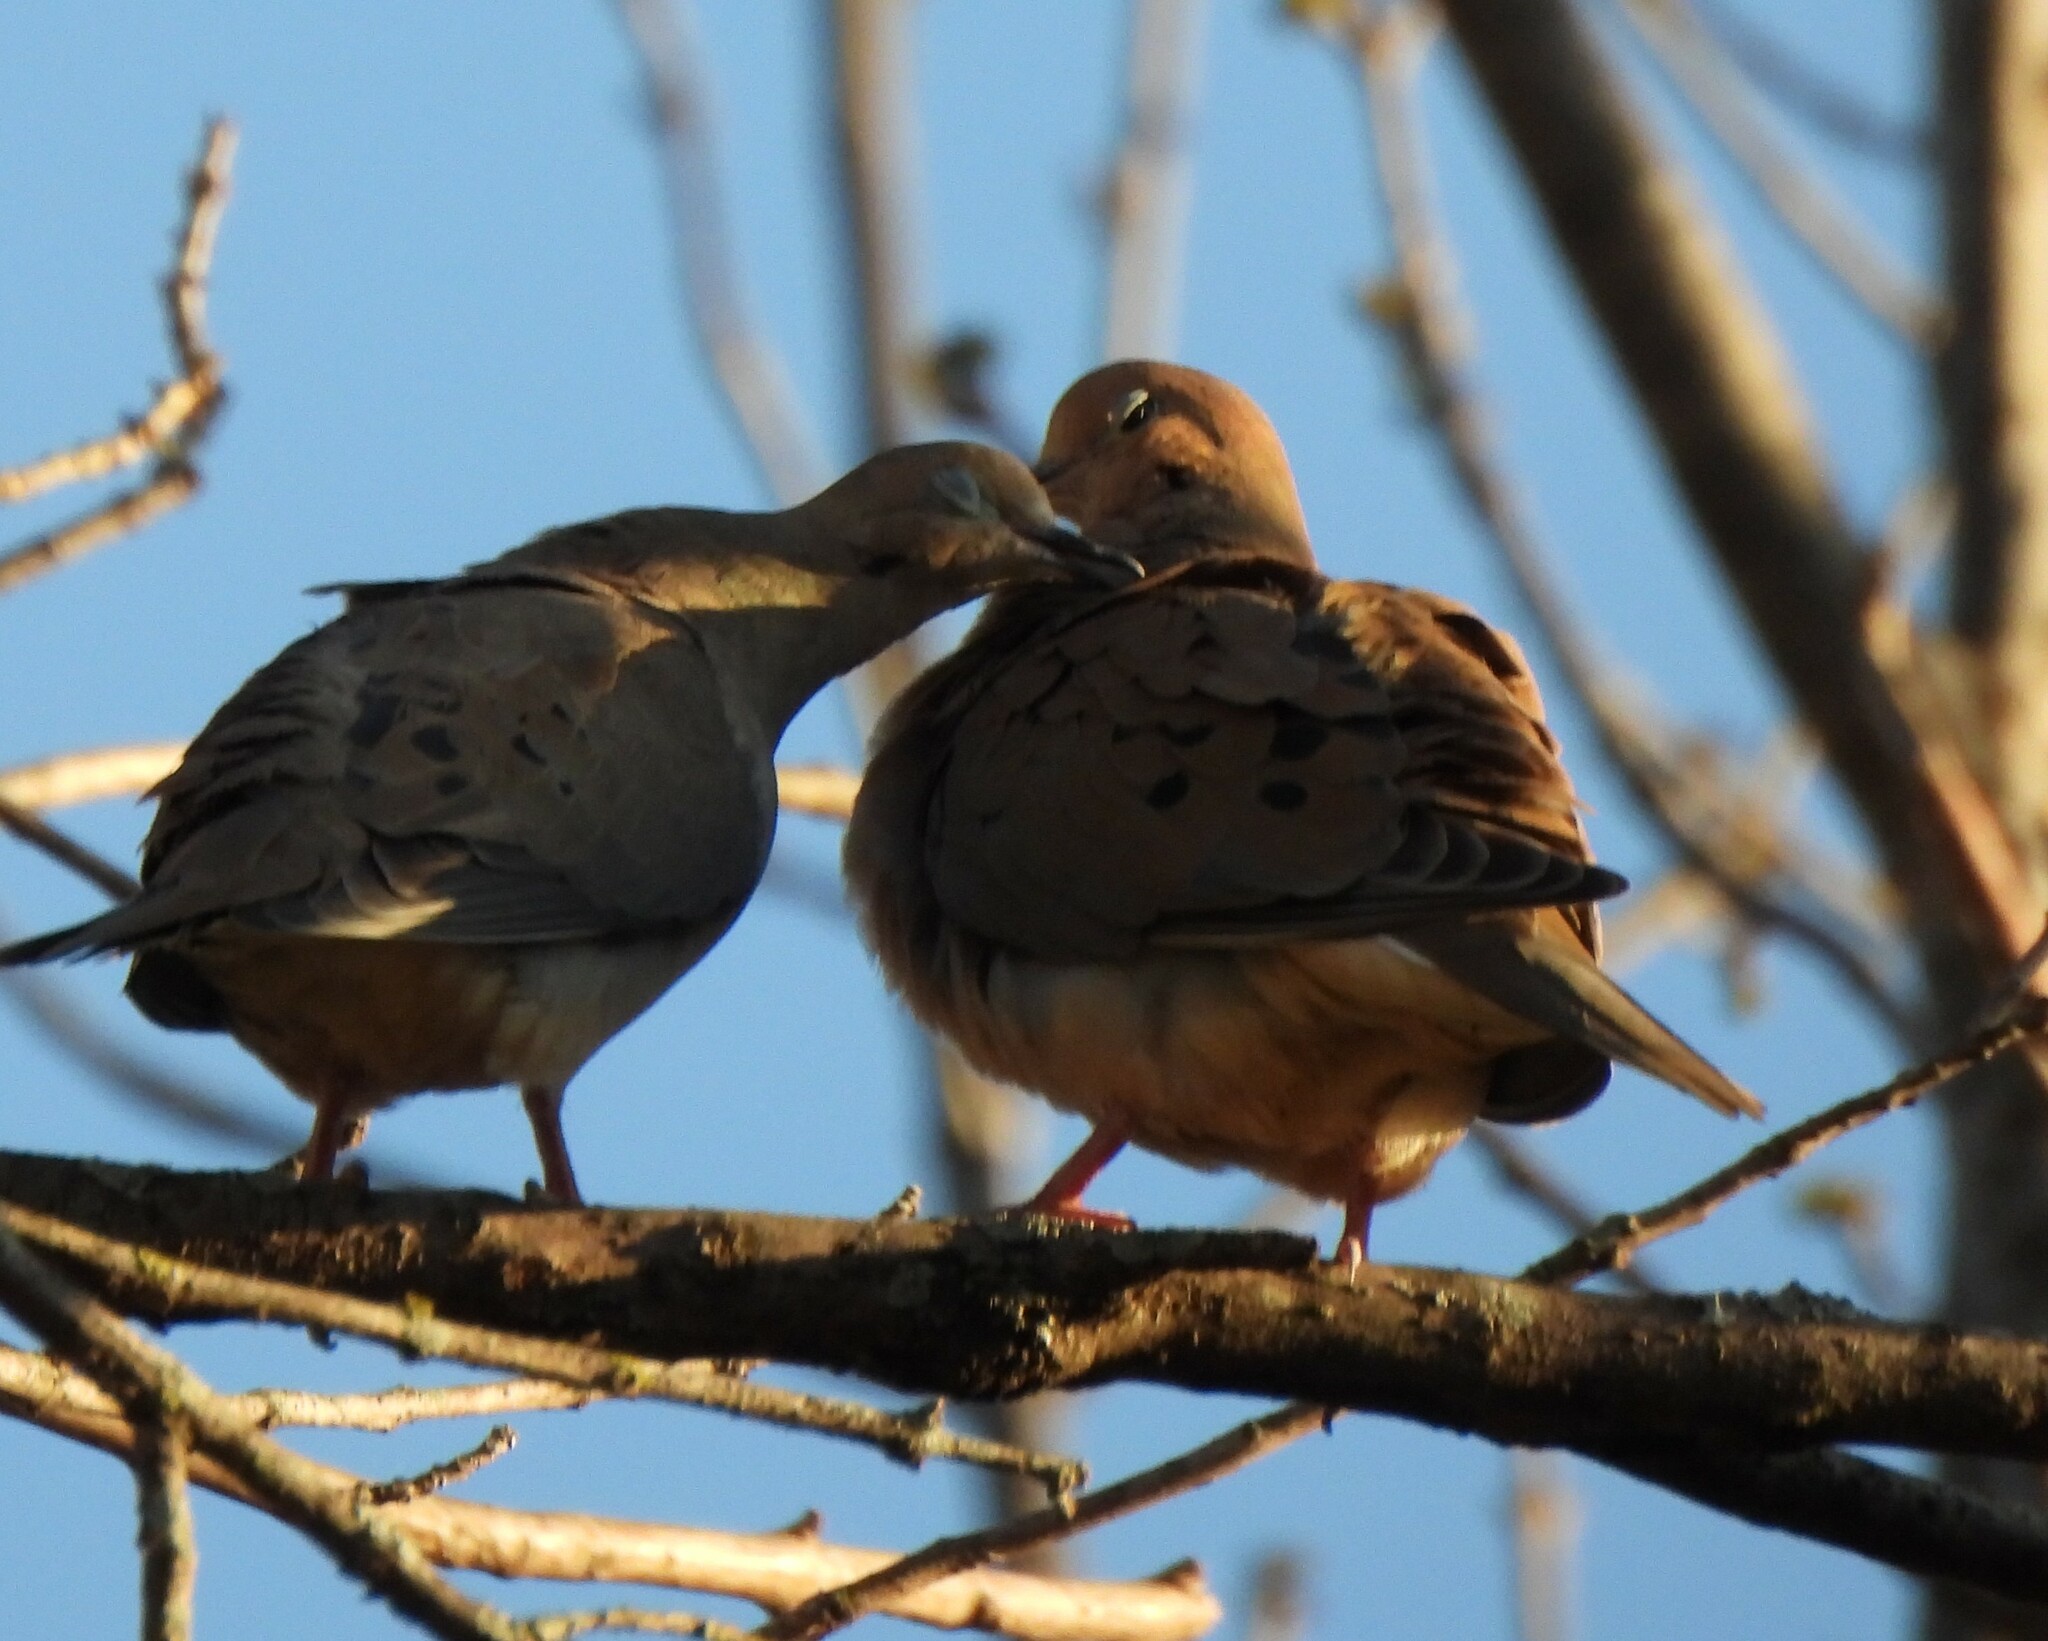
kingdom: Animalia
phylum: Chordata
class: Aves
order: Columbiformes
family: Columbidae
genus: Zenaida
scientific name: Zenaida macroura
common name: Mourning dove
